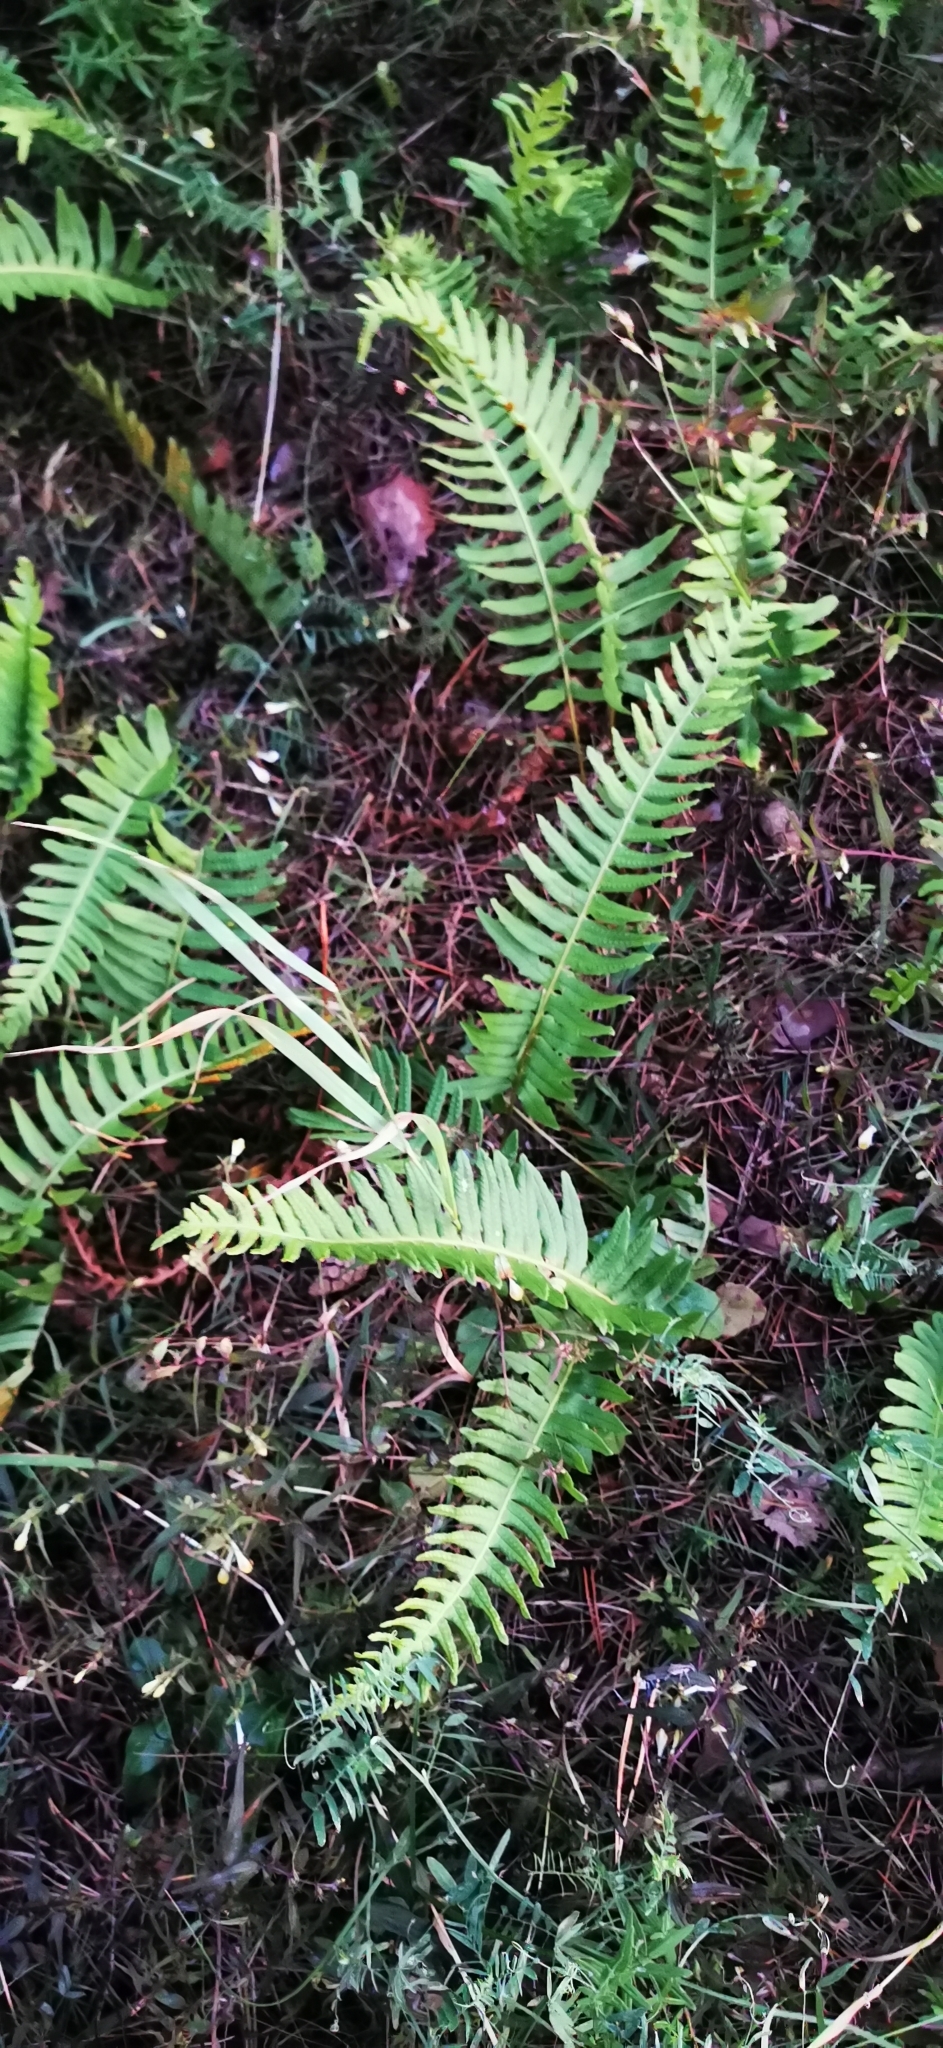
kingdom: Plantae
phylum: Tracheophyta
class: Polypodiopsida
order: Polypodiales
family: Polypodiaceae
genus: Polypodium
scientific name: Polypodium vulgare
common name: Common polypody
